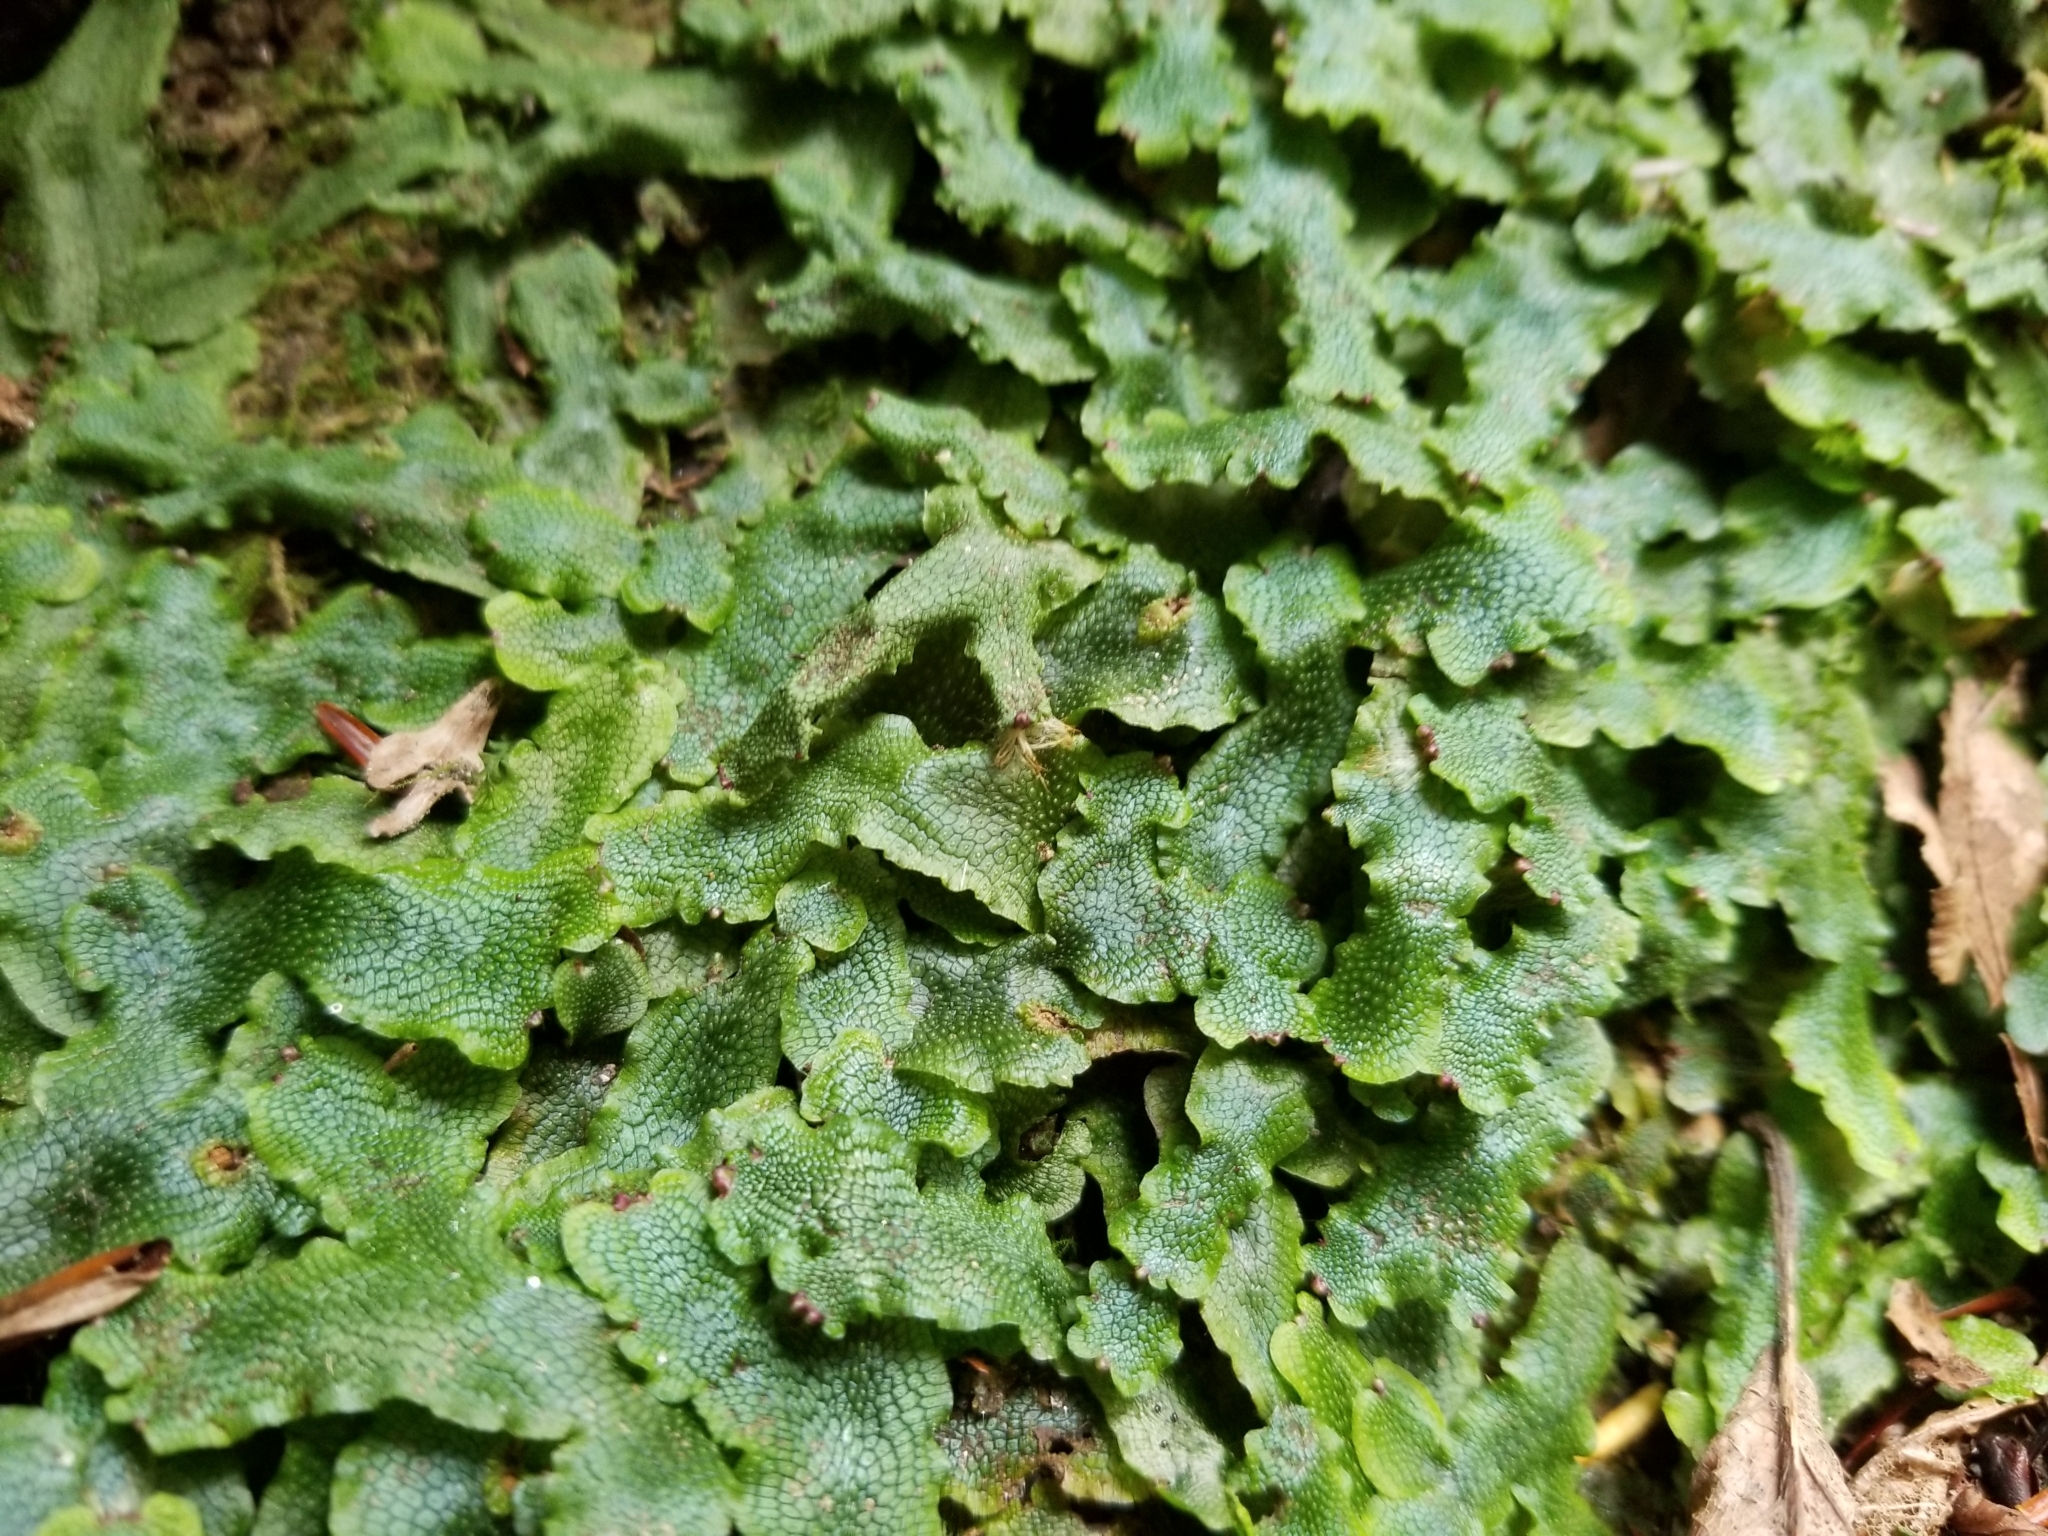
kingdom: Plantae
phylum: Marchantiophyta
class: Marchantiopsida
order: Marchantiales
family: Conocephalaceae
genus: Conocephalum
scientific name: Conocephalum salebrosum
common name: Cat-tongue liverwort
